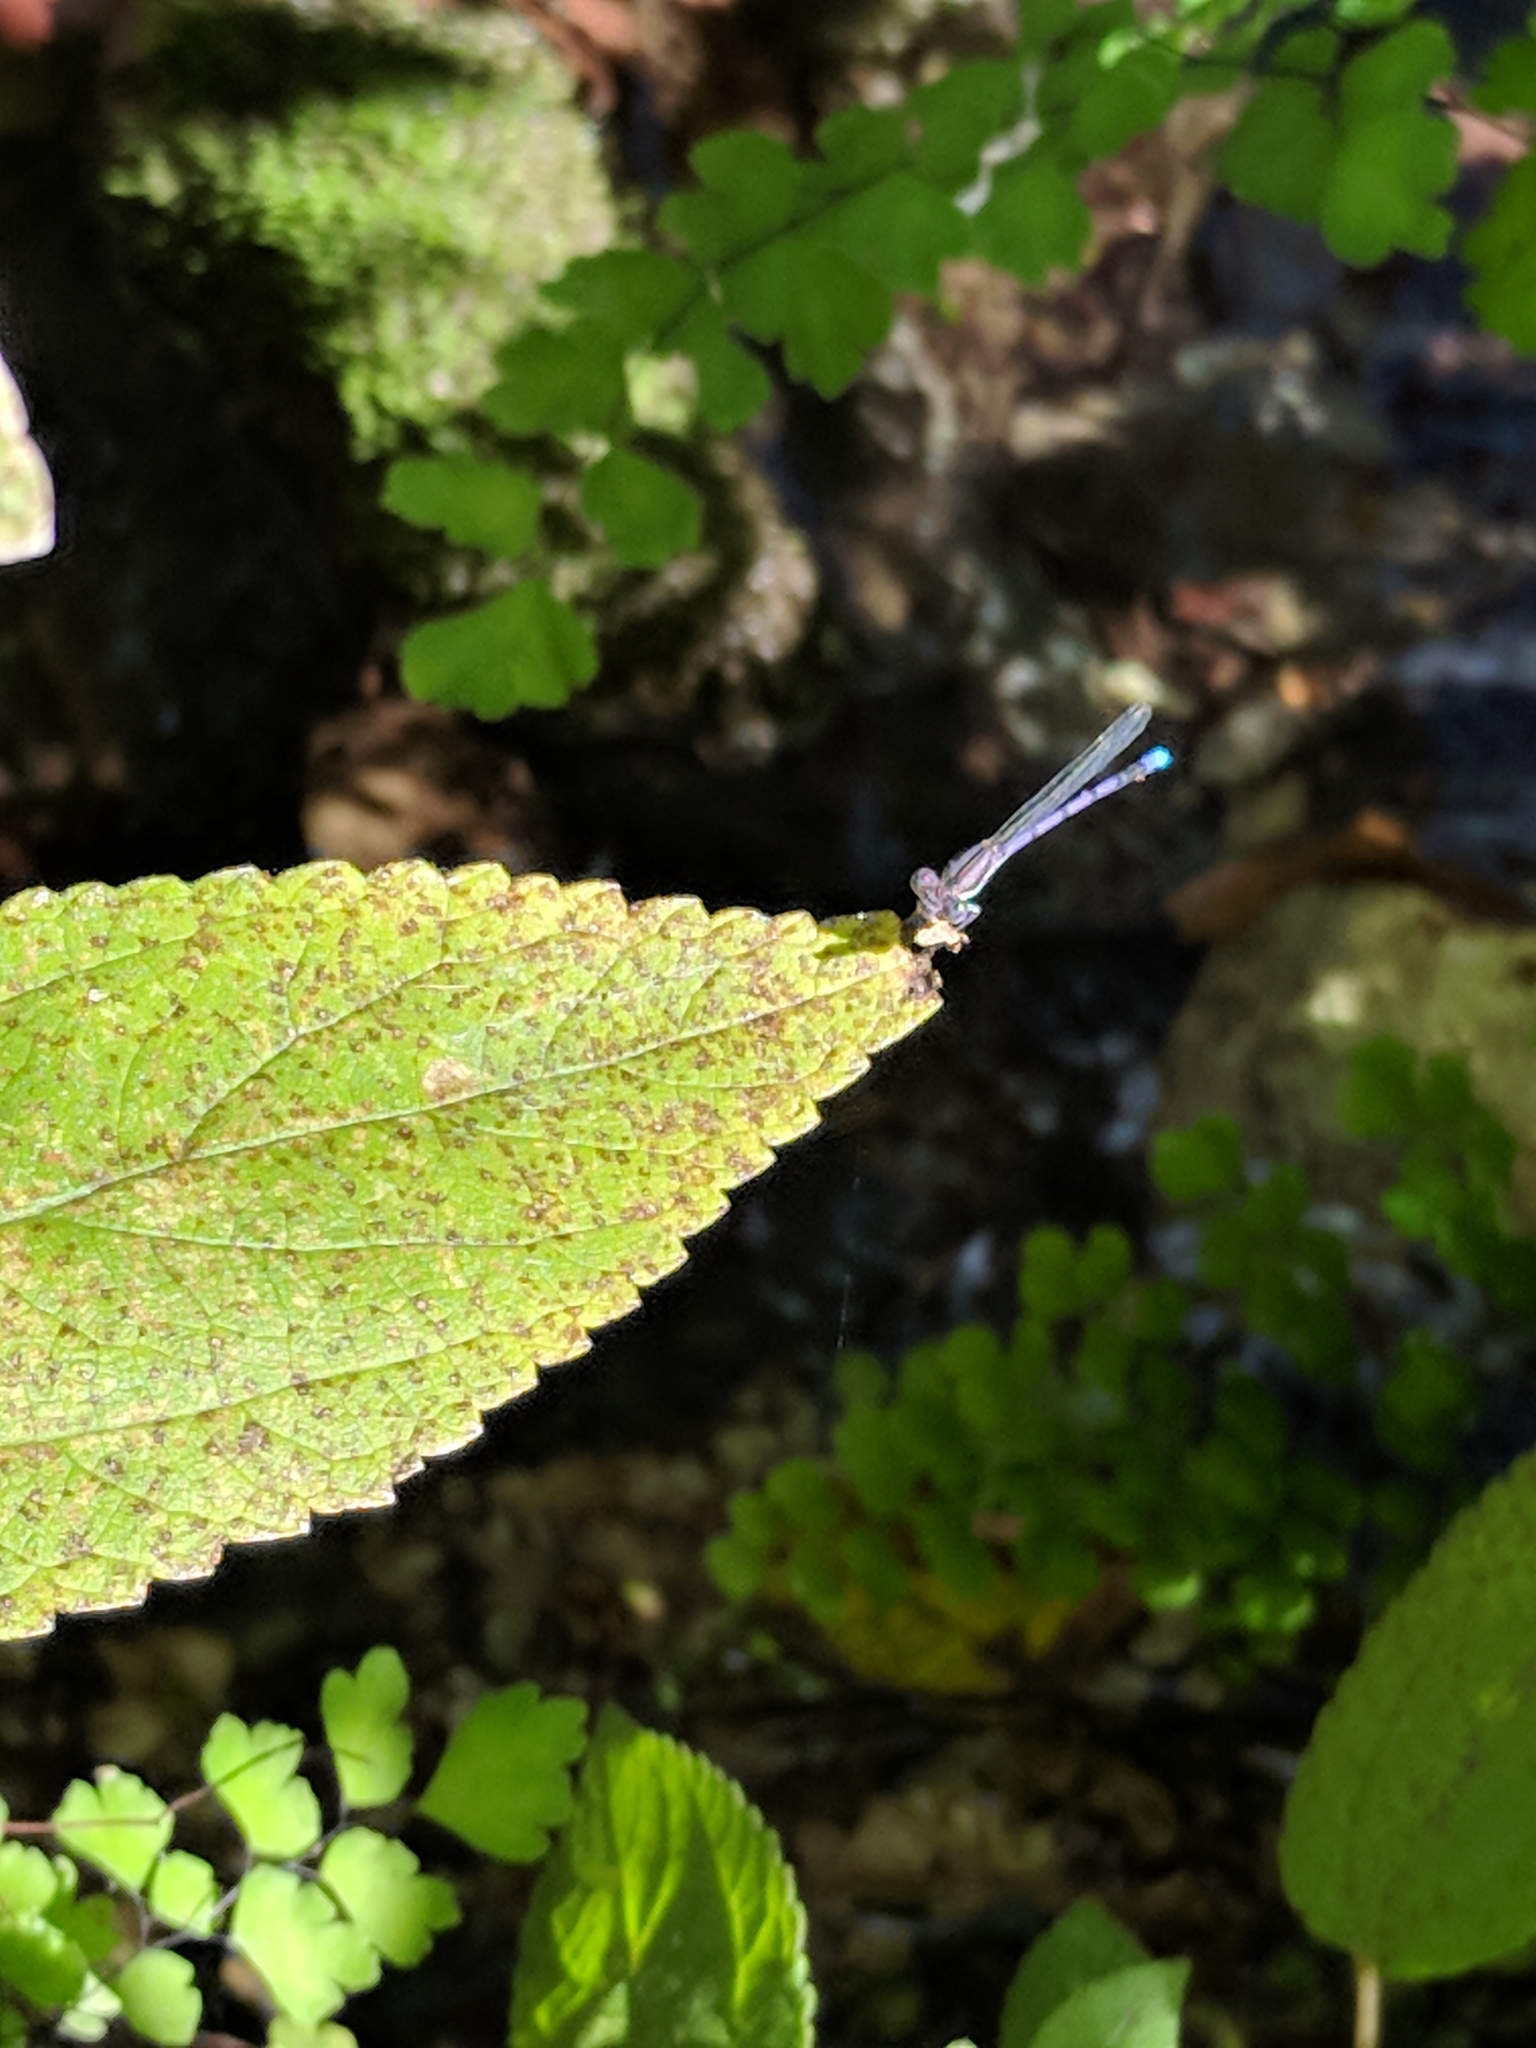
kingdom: Animalia
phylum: Arthropoda
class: Insecta
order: Odonata
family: Coenagrionidae
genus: Argia
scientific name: Argia fumipennis
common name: Variable dancer
